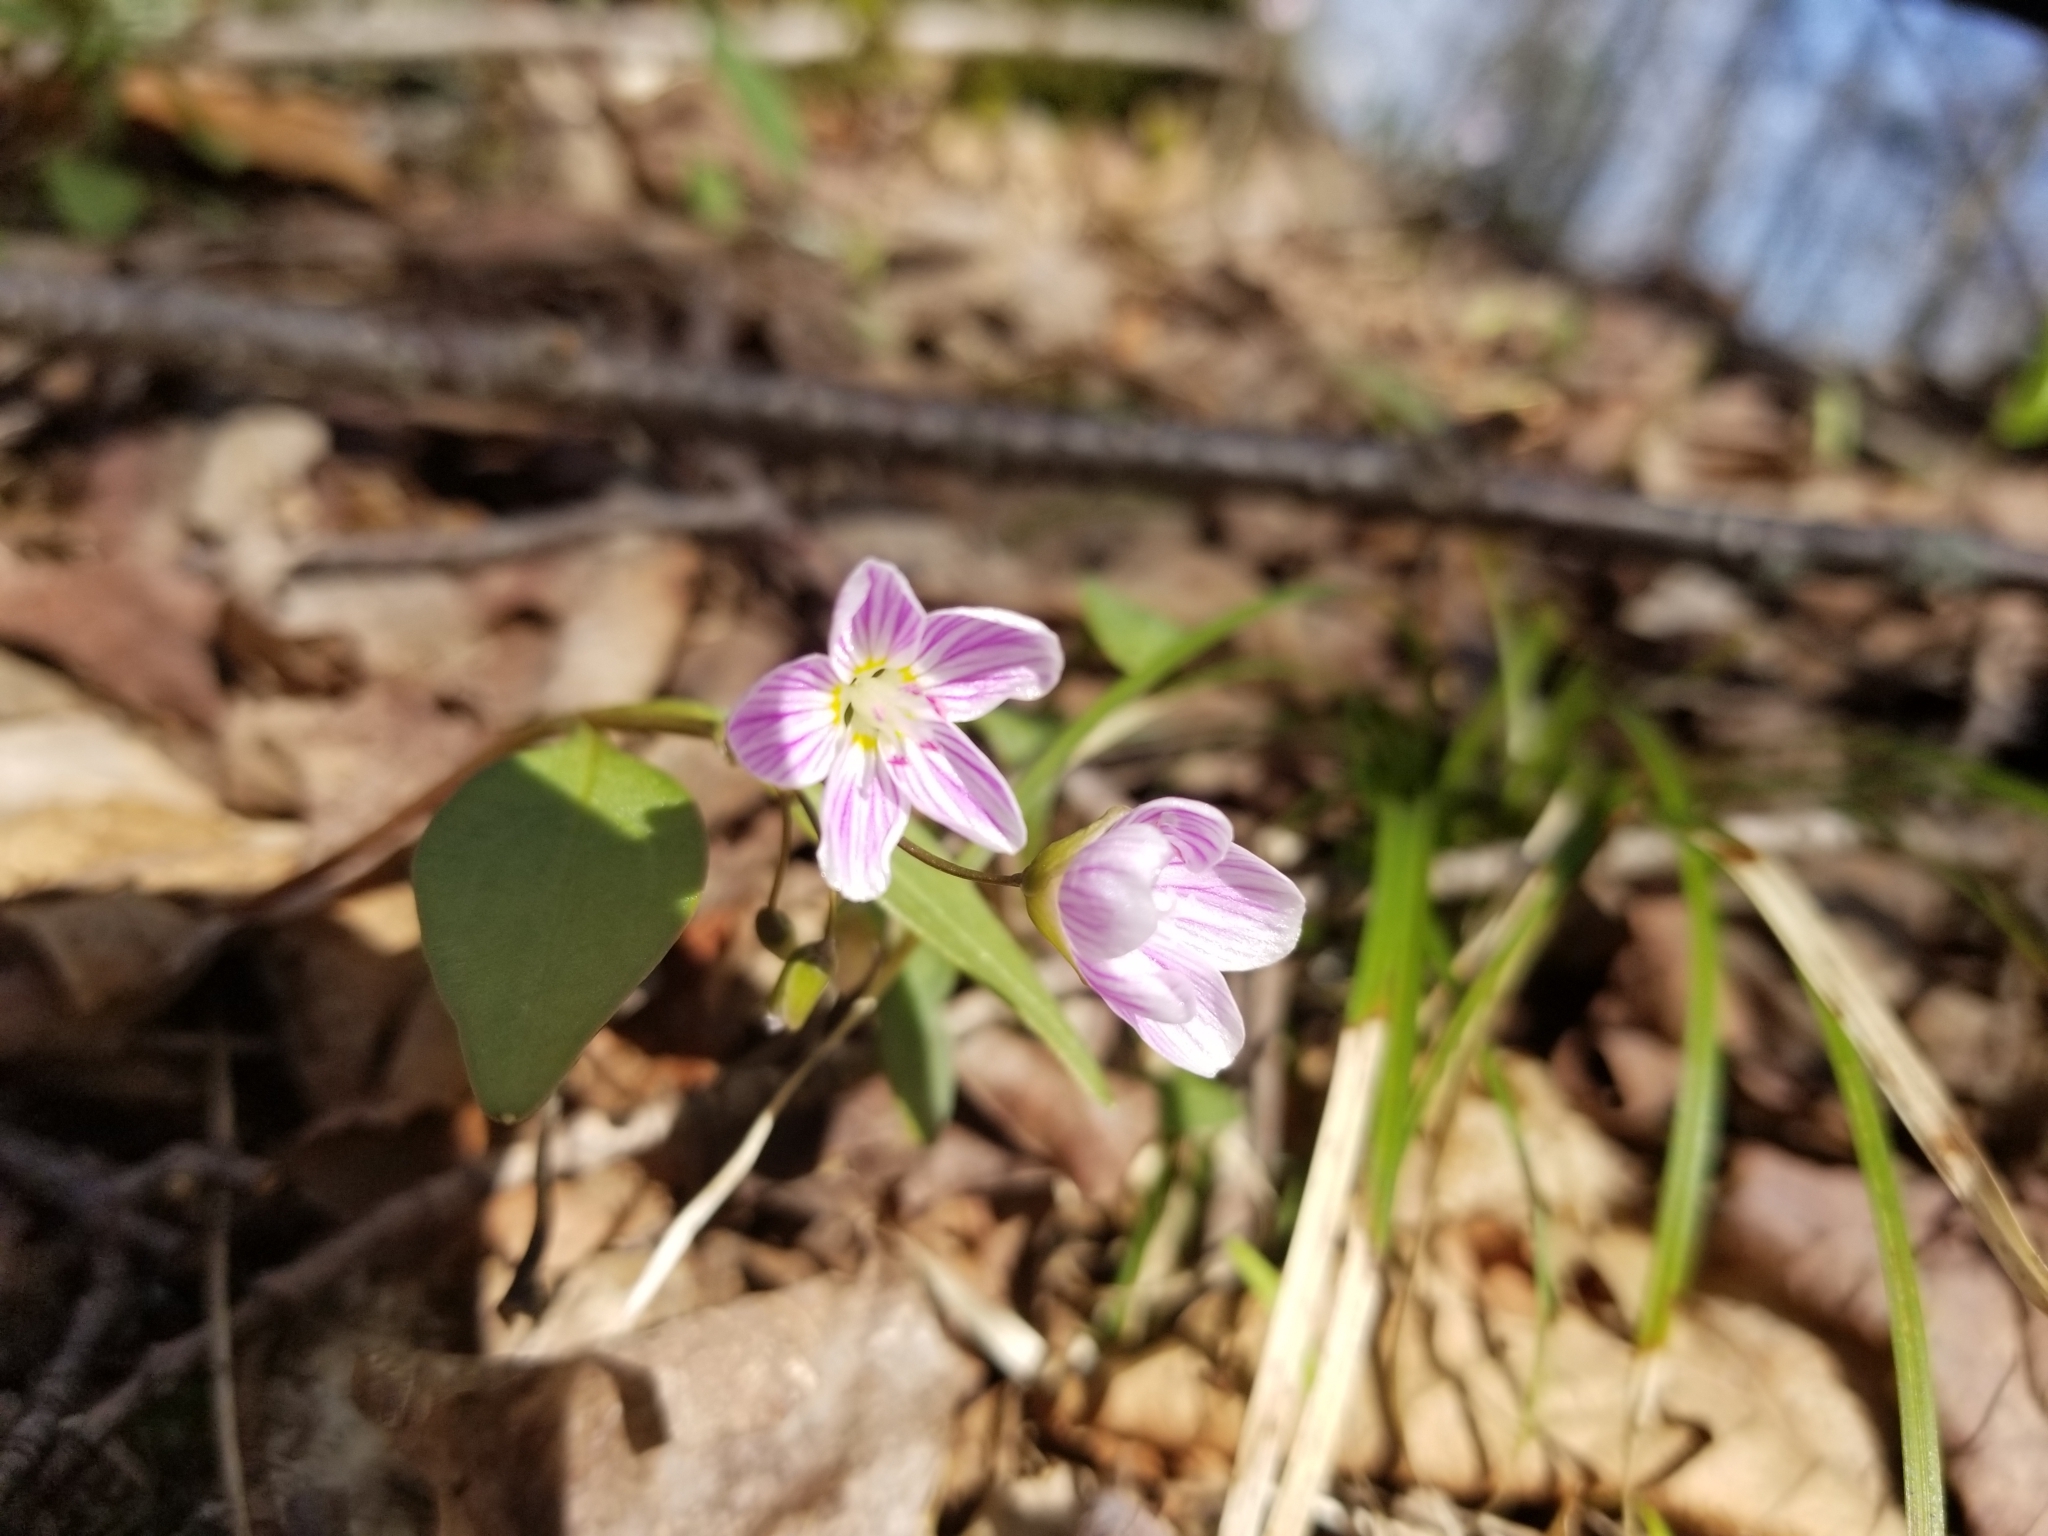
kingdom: Plantae
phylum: Tracheophyta
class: Magnoliopsida
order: Caryophyllales
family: Montiaceae
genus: Claytonia
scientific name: Claytonia caroliniana
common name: Carolina spring beauty
